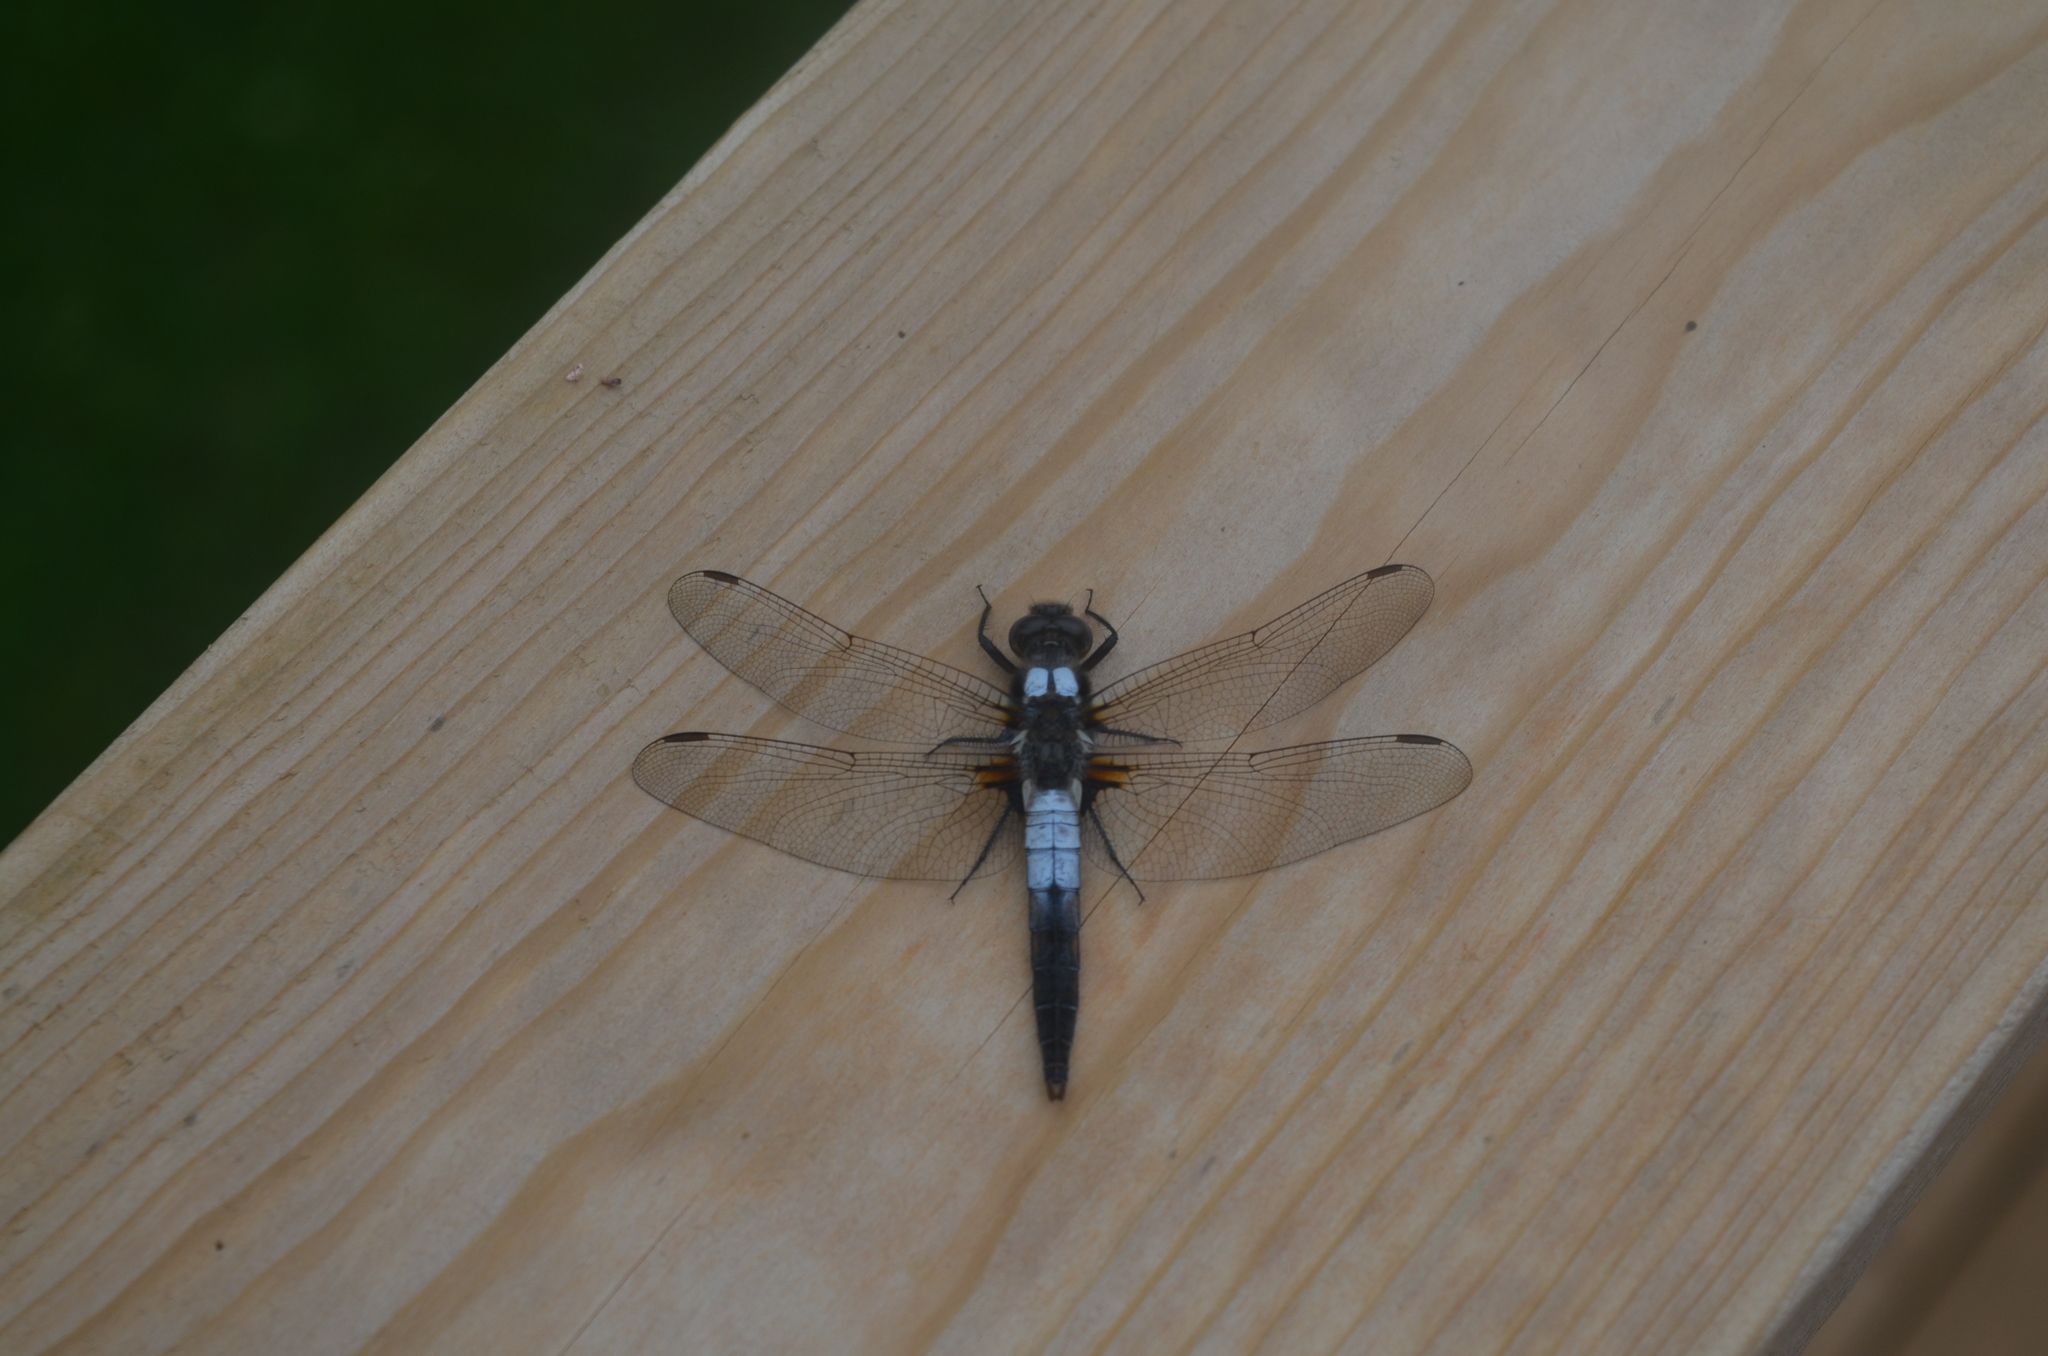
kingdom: Animalia
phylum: Arthropoda
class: Insecta
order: Odonata
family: Libellulidae
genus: Ladona
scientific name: Ladona julia
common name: Chalk-fronted corporal
